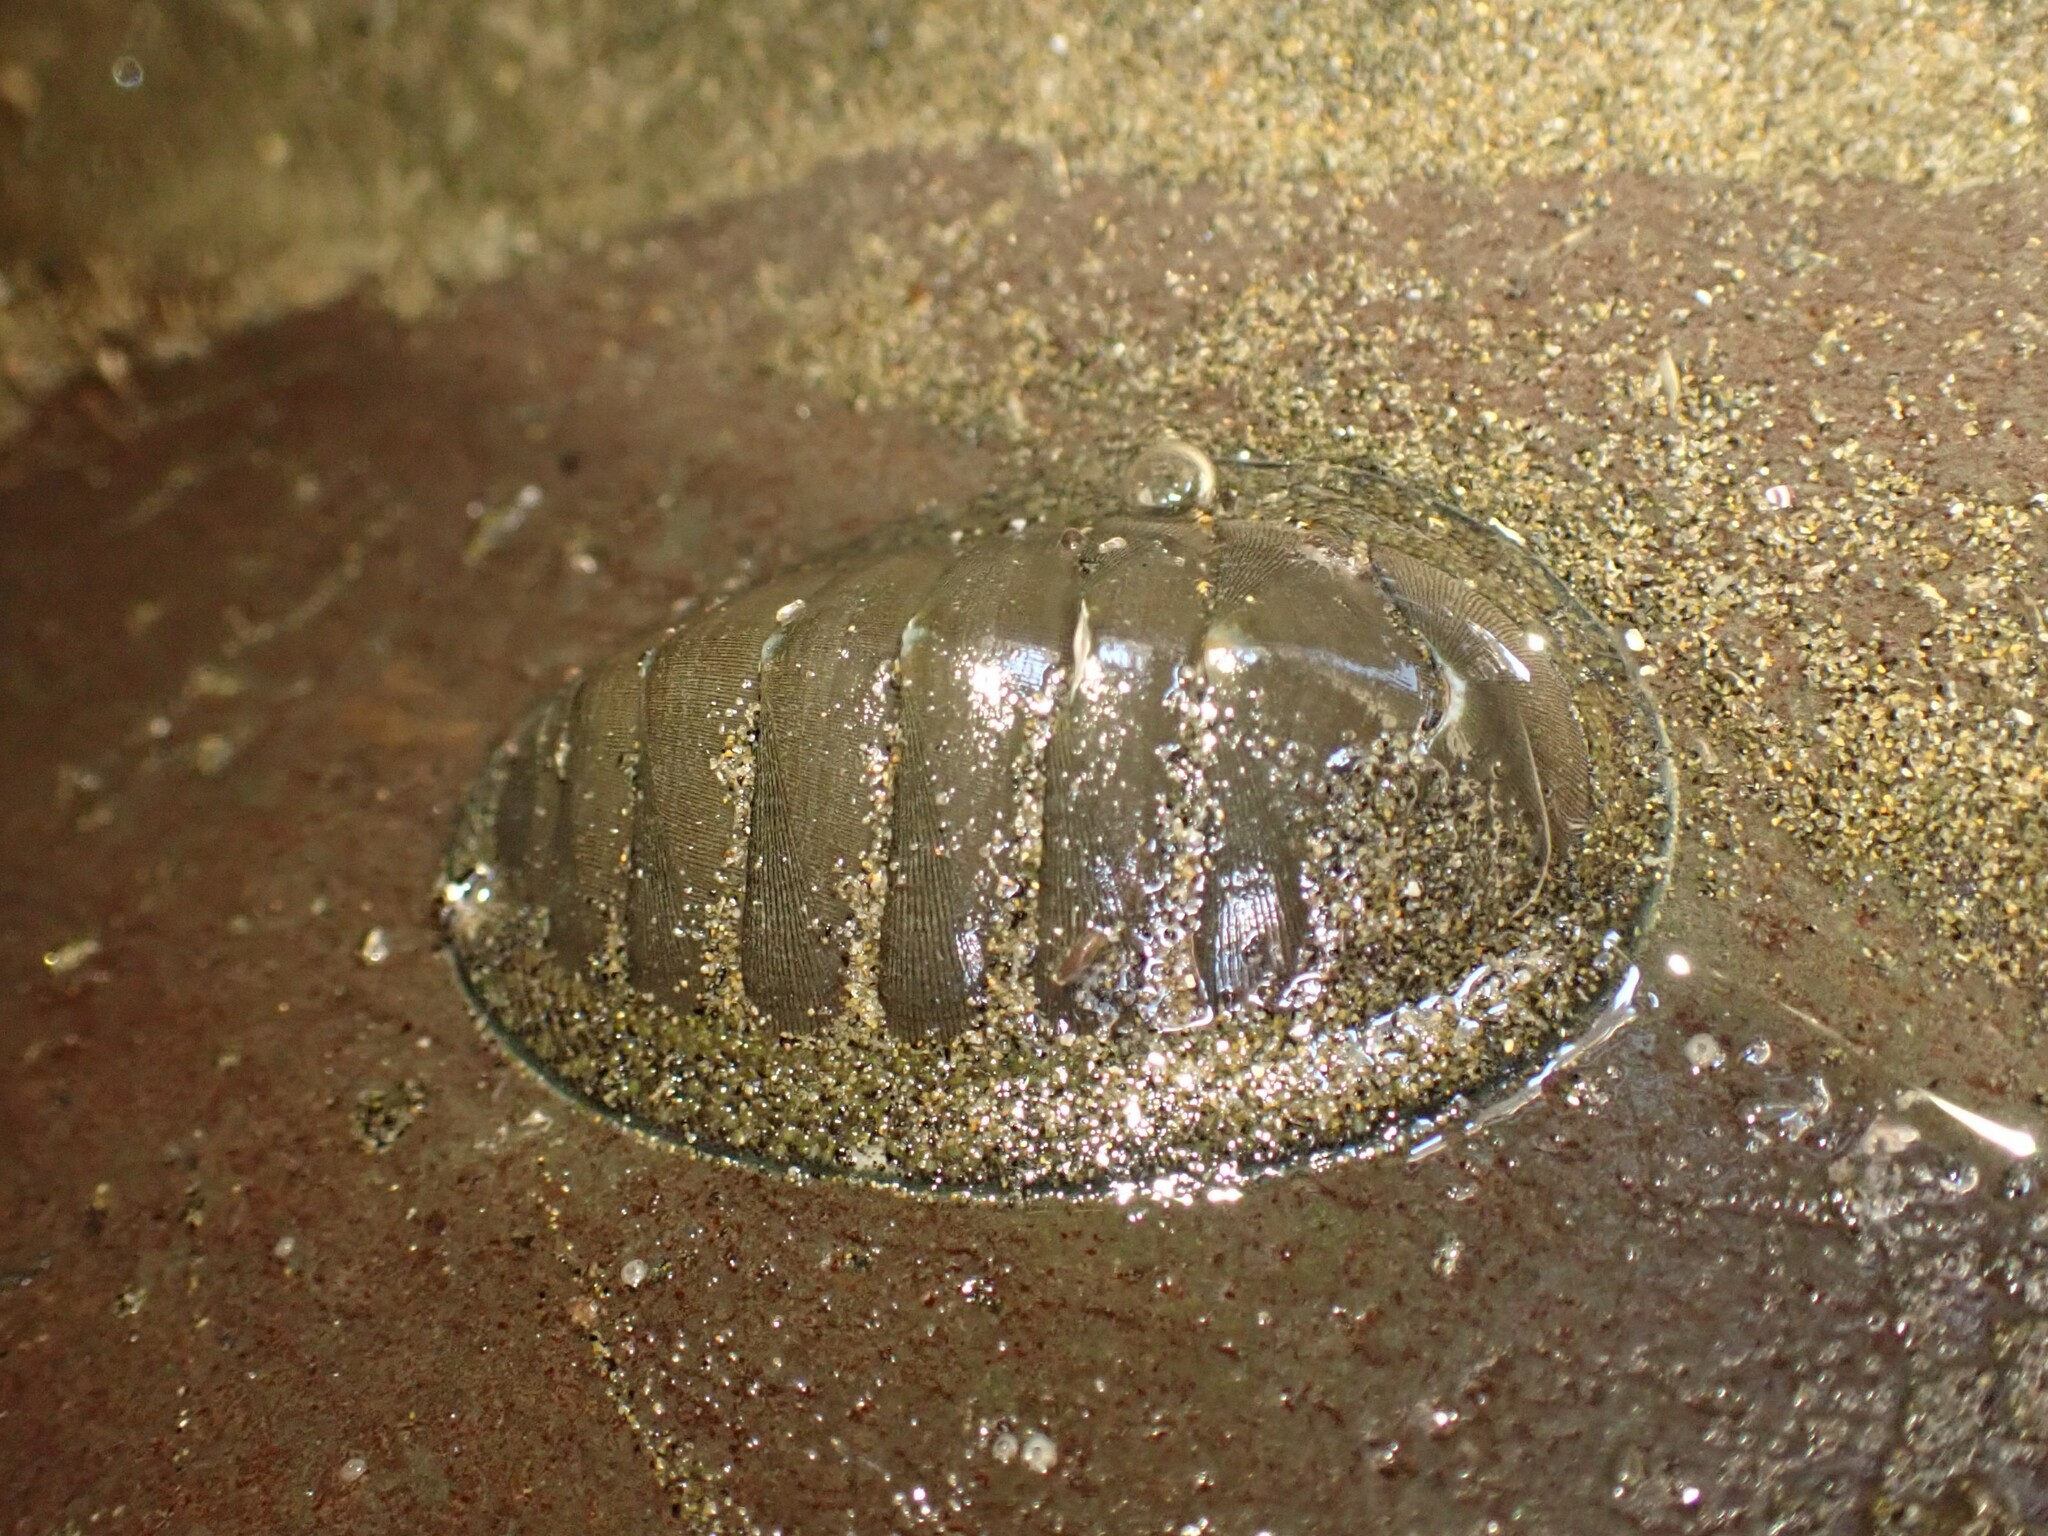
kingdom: Animalia
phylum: Mollusca
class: Polyplacophora
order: Chitonida
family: Chitonidae
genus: Chiton
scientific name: Chiton glaucus
